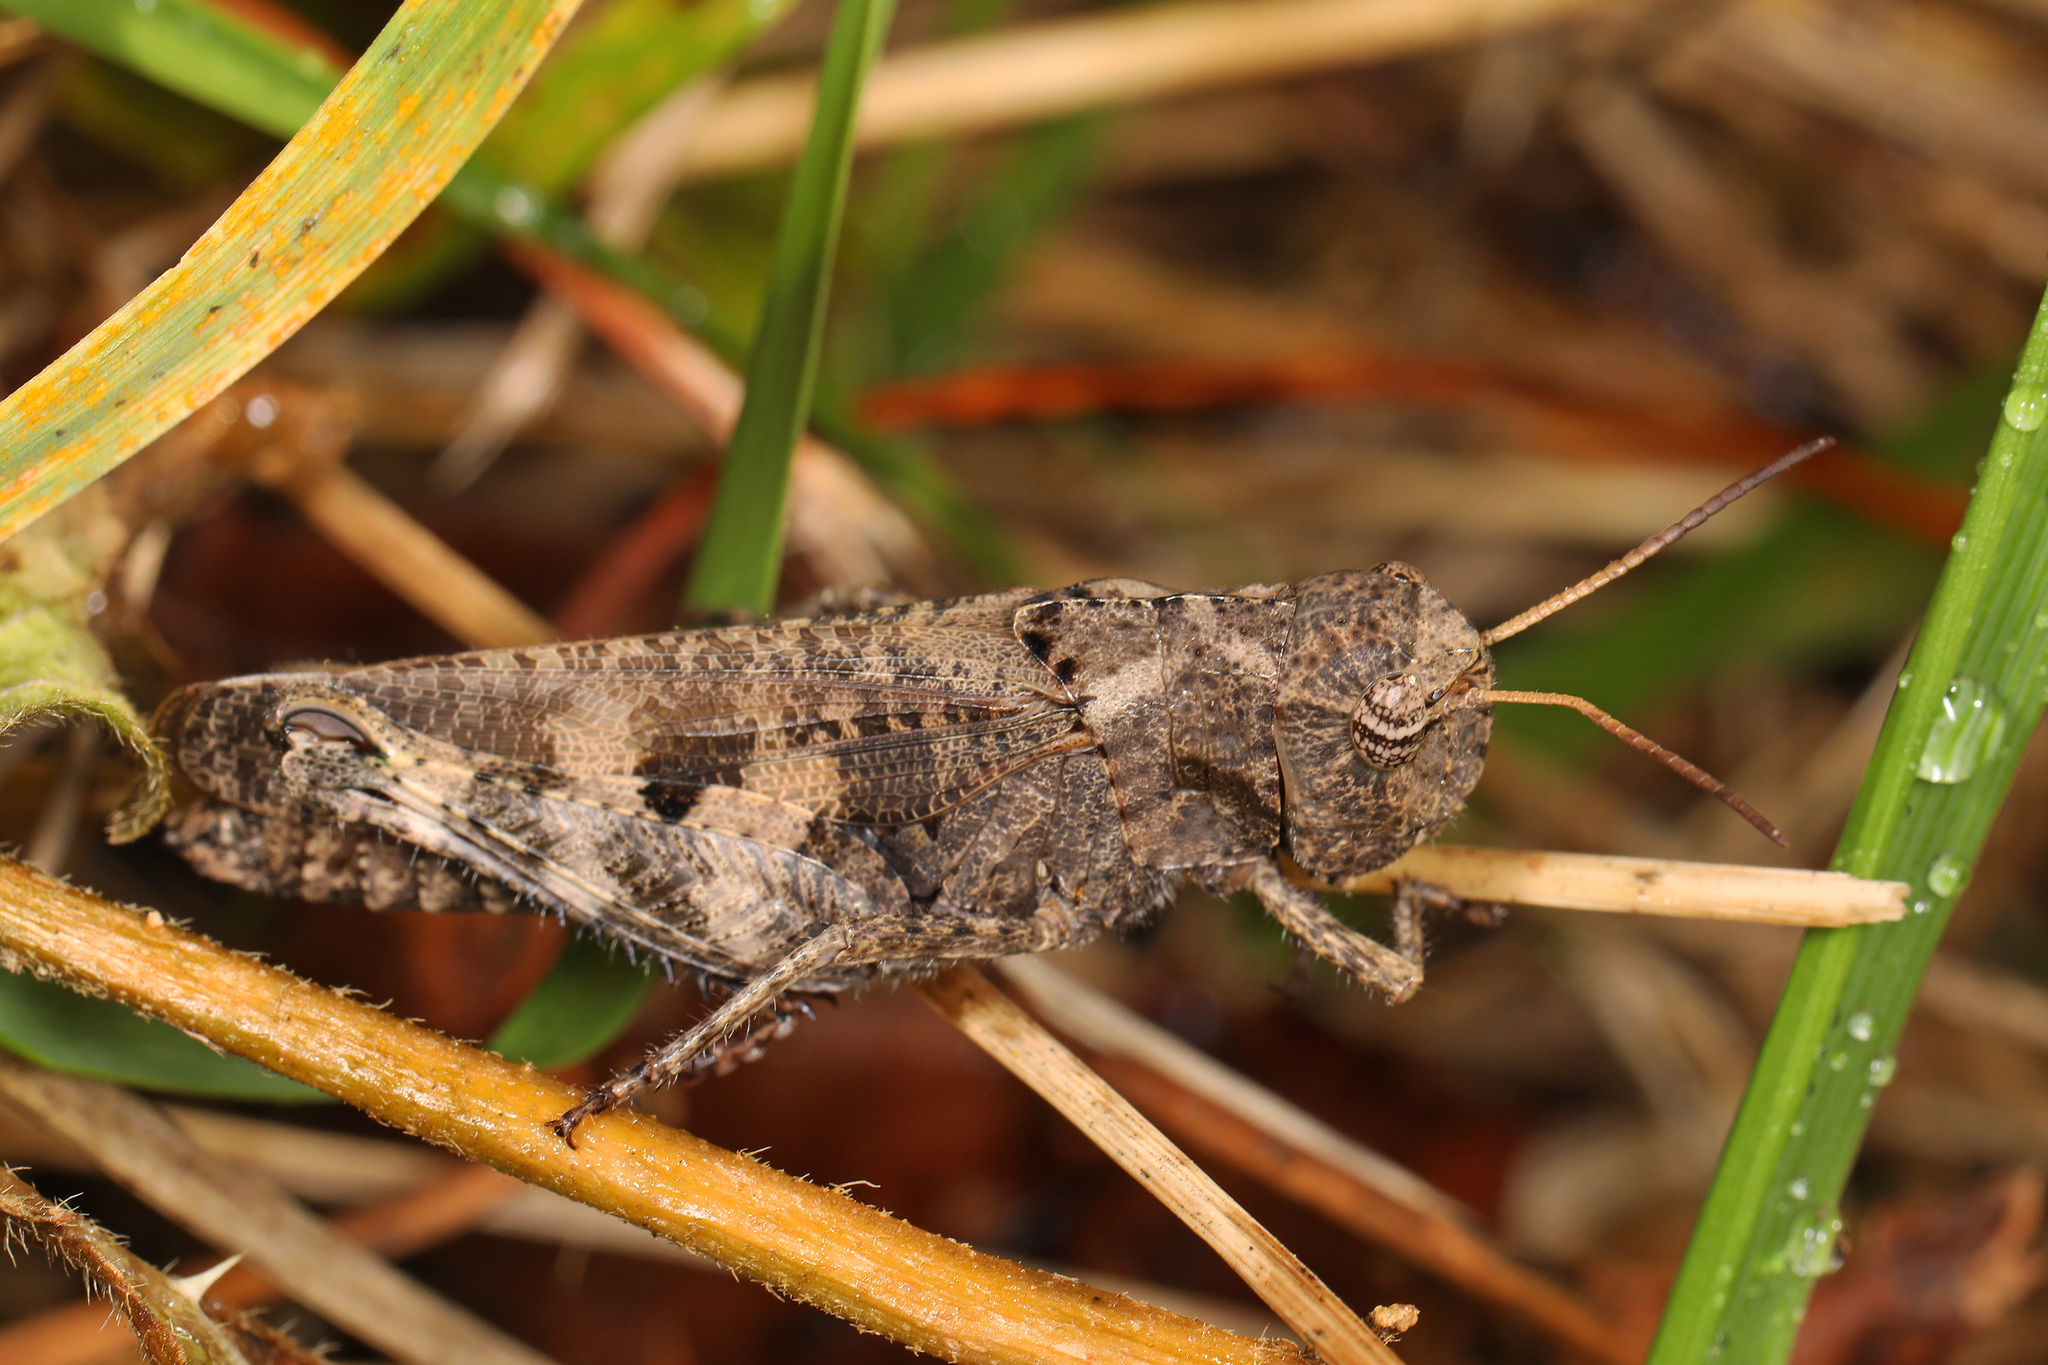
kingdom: Animalia
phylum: Arthropoda
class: Insecta
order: Orthoptera
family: Acrididae
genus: Encoptolophus
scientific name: Encoptolophus sordidus
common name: Dusky grasshopper
